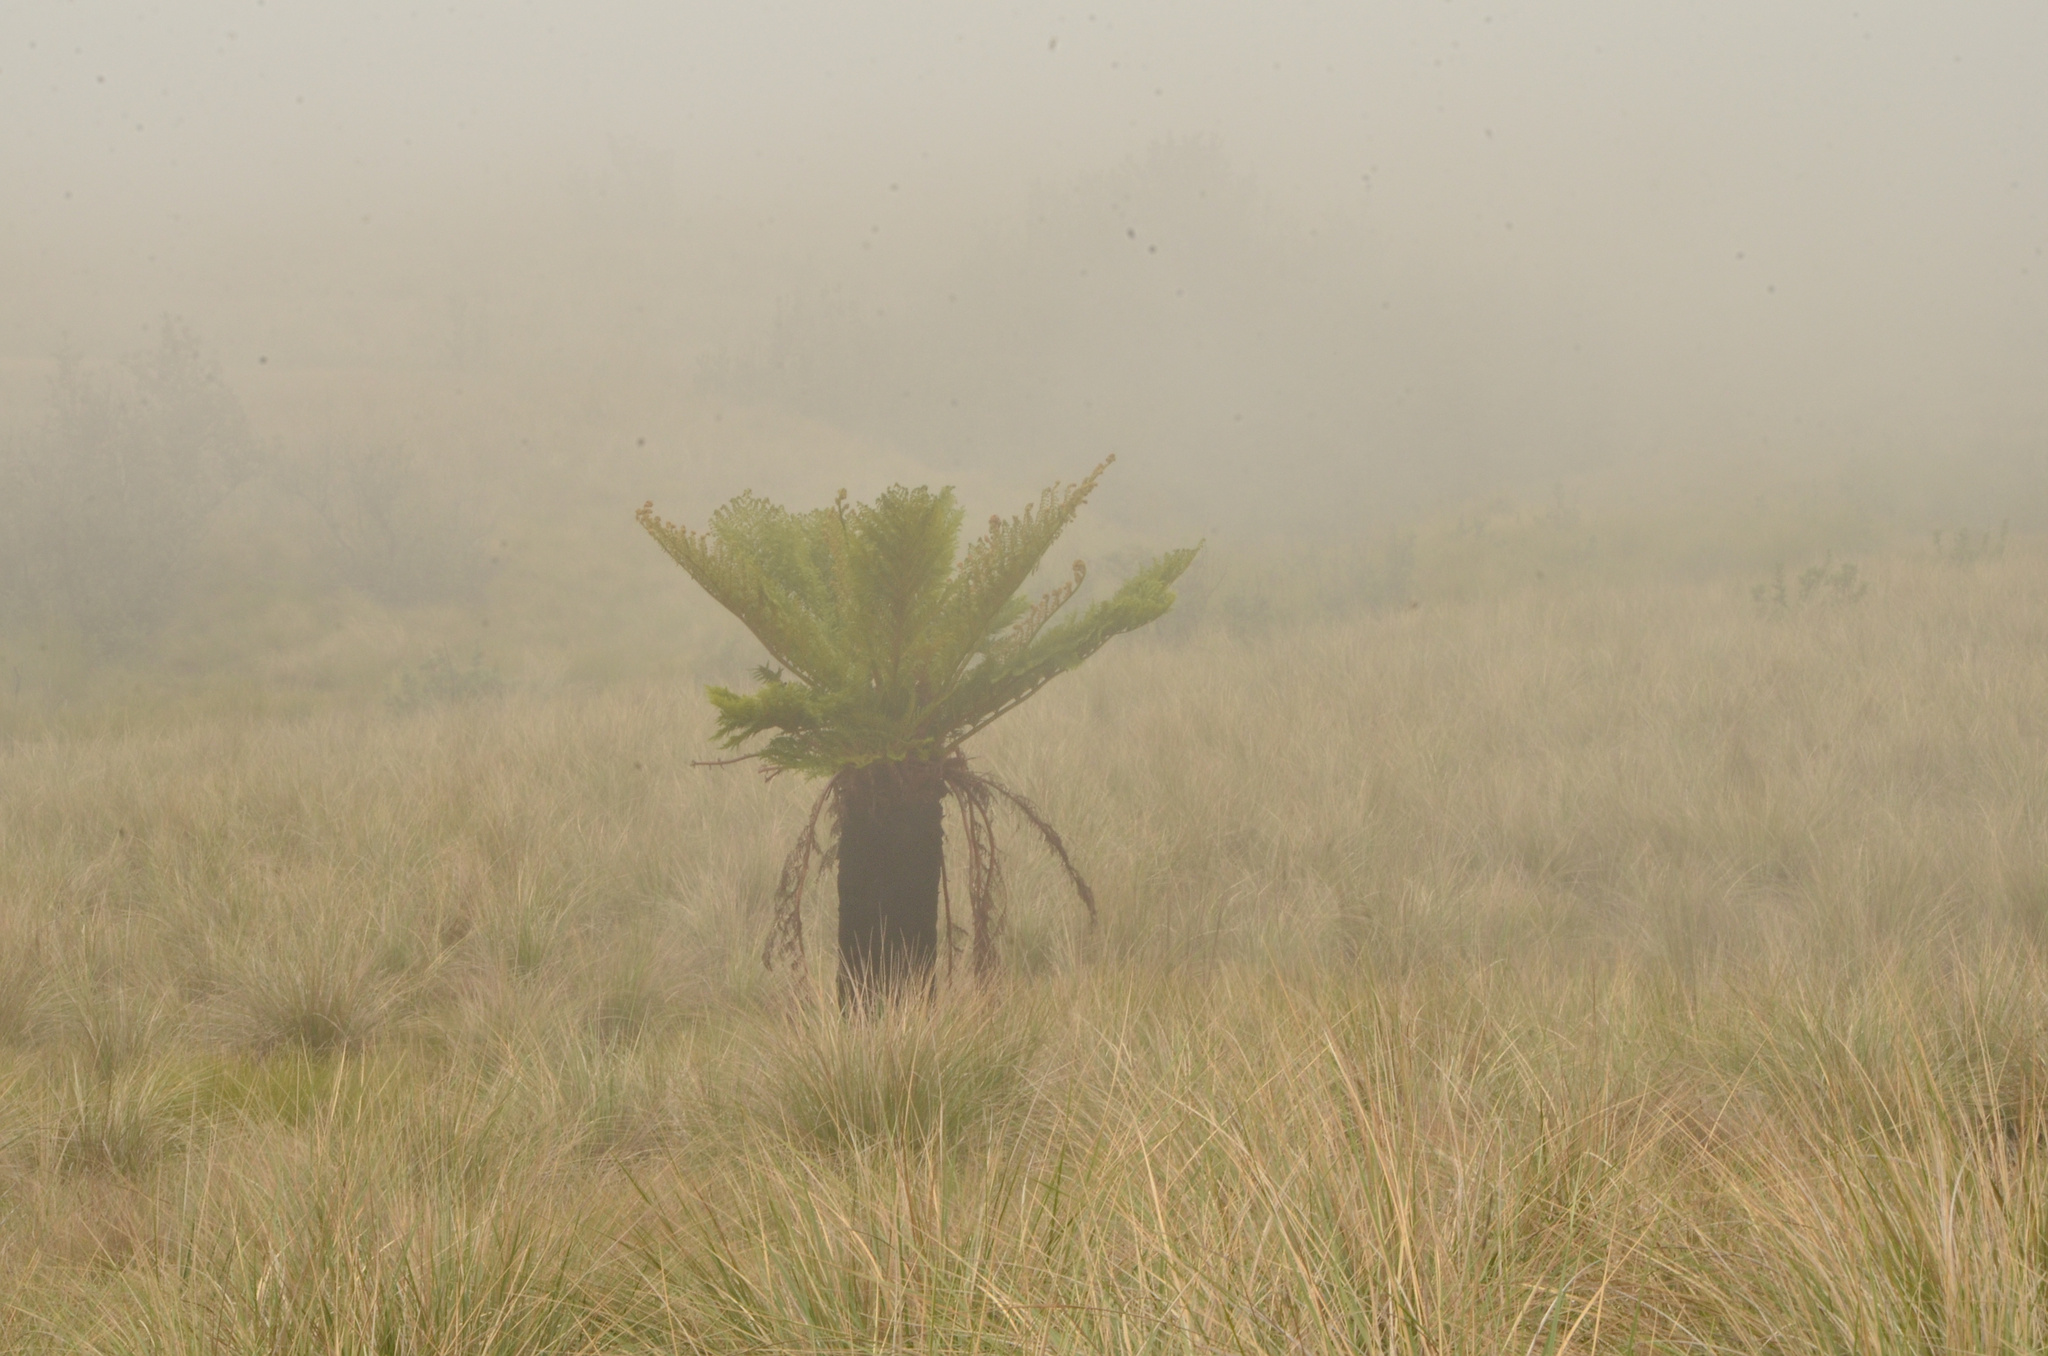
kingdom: Plantae
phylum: Tracheophyta
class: Polypodiopsida
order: Cyatheales
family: Cyatheaceae
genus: Alsophila
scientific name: Alsophila dregei
